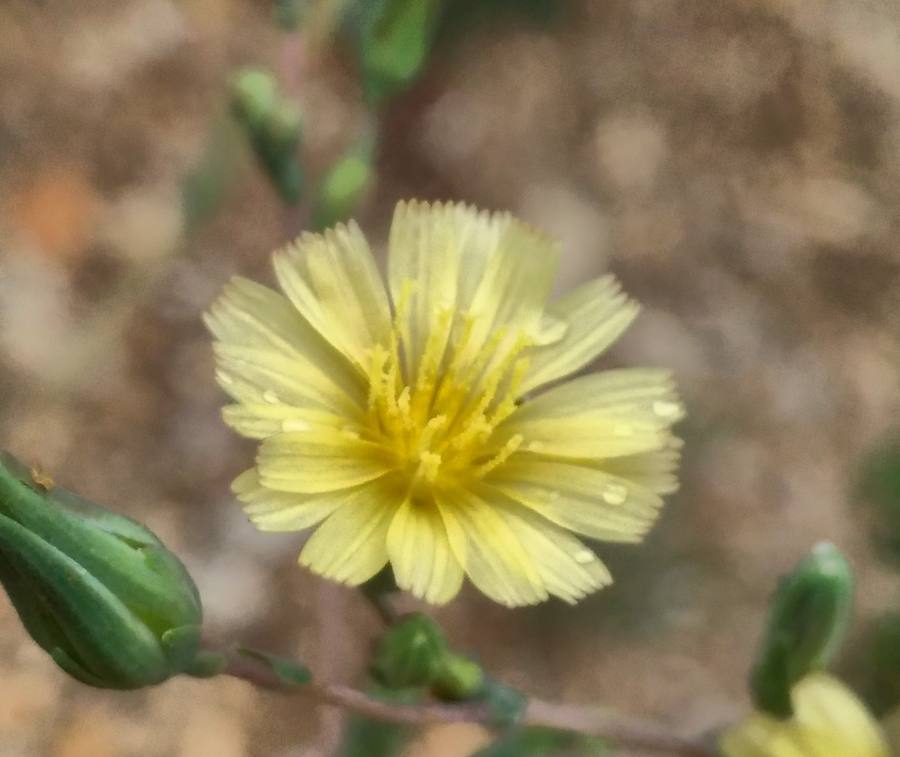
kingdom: Plantae
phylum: Tracheophyta
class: Magnoliopsida
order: Asterales
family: Asteraceae
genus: Lactuca
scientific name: Lactuca serriola
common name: Prickly lettuce
